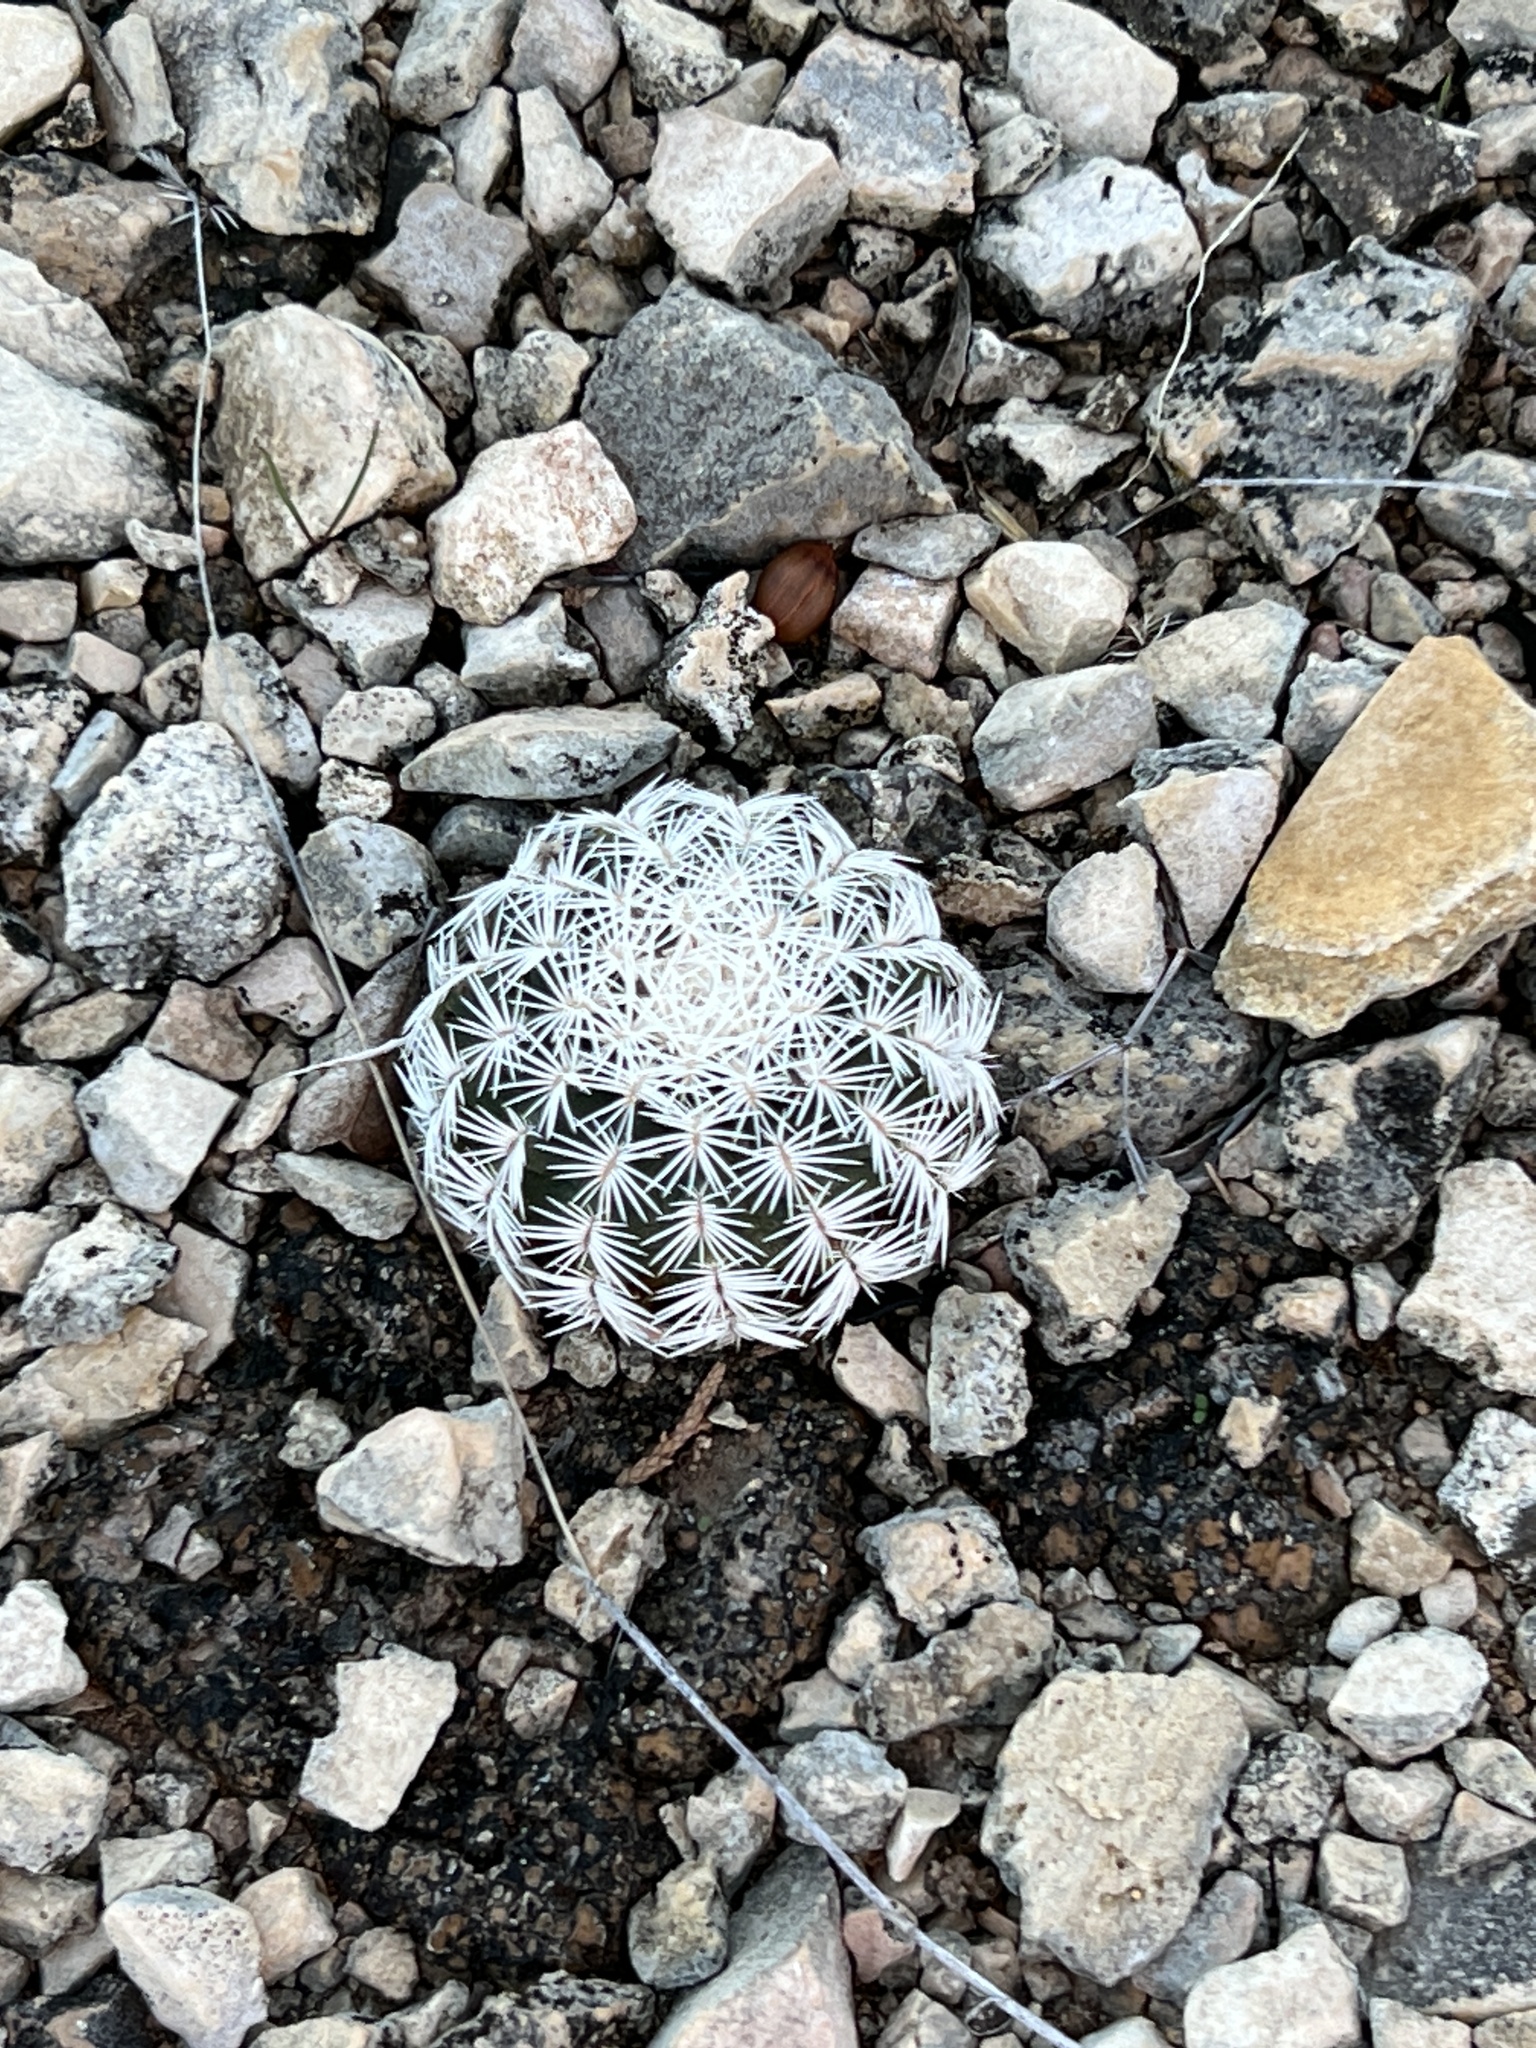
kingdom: Plantae
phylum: Tracheophyta
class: Magnoliopsida
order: Caryophyllales
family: Cactaceae
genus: Echinocereus
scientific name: Echinocereus reichenbachii
